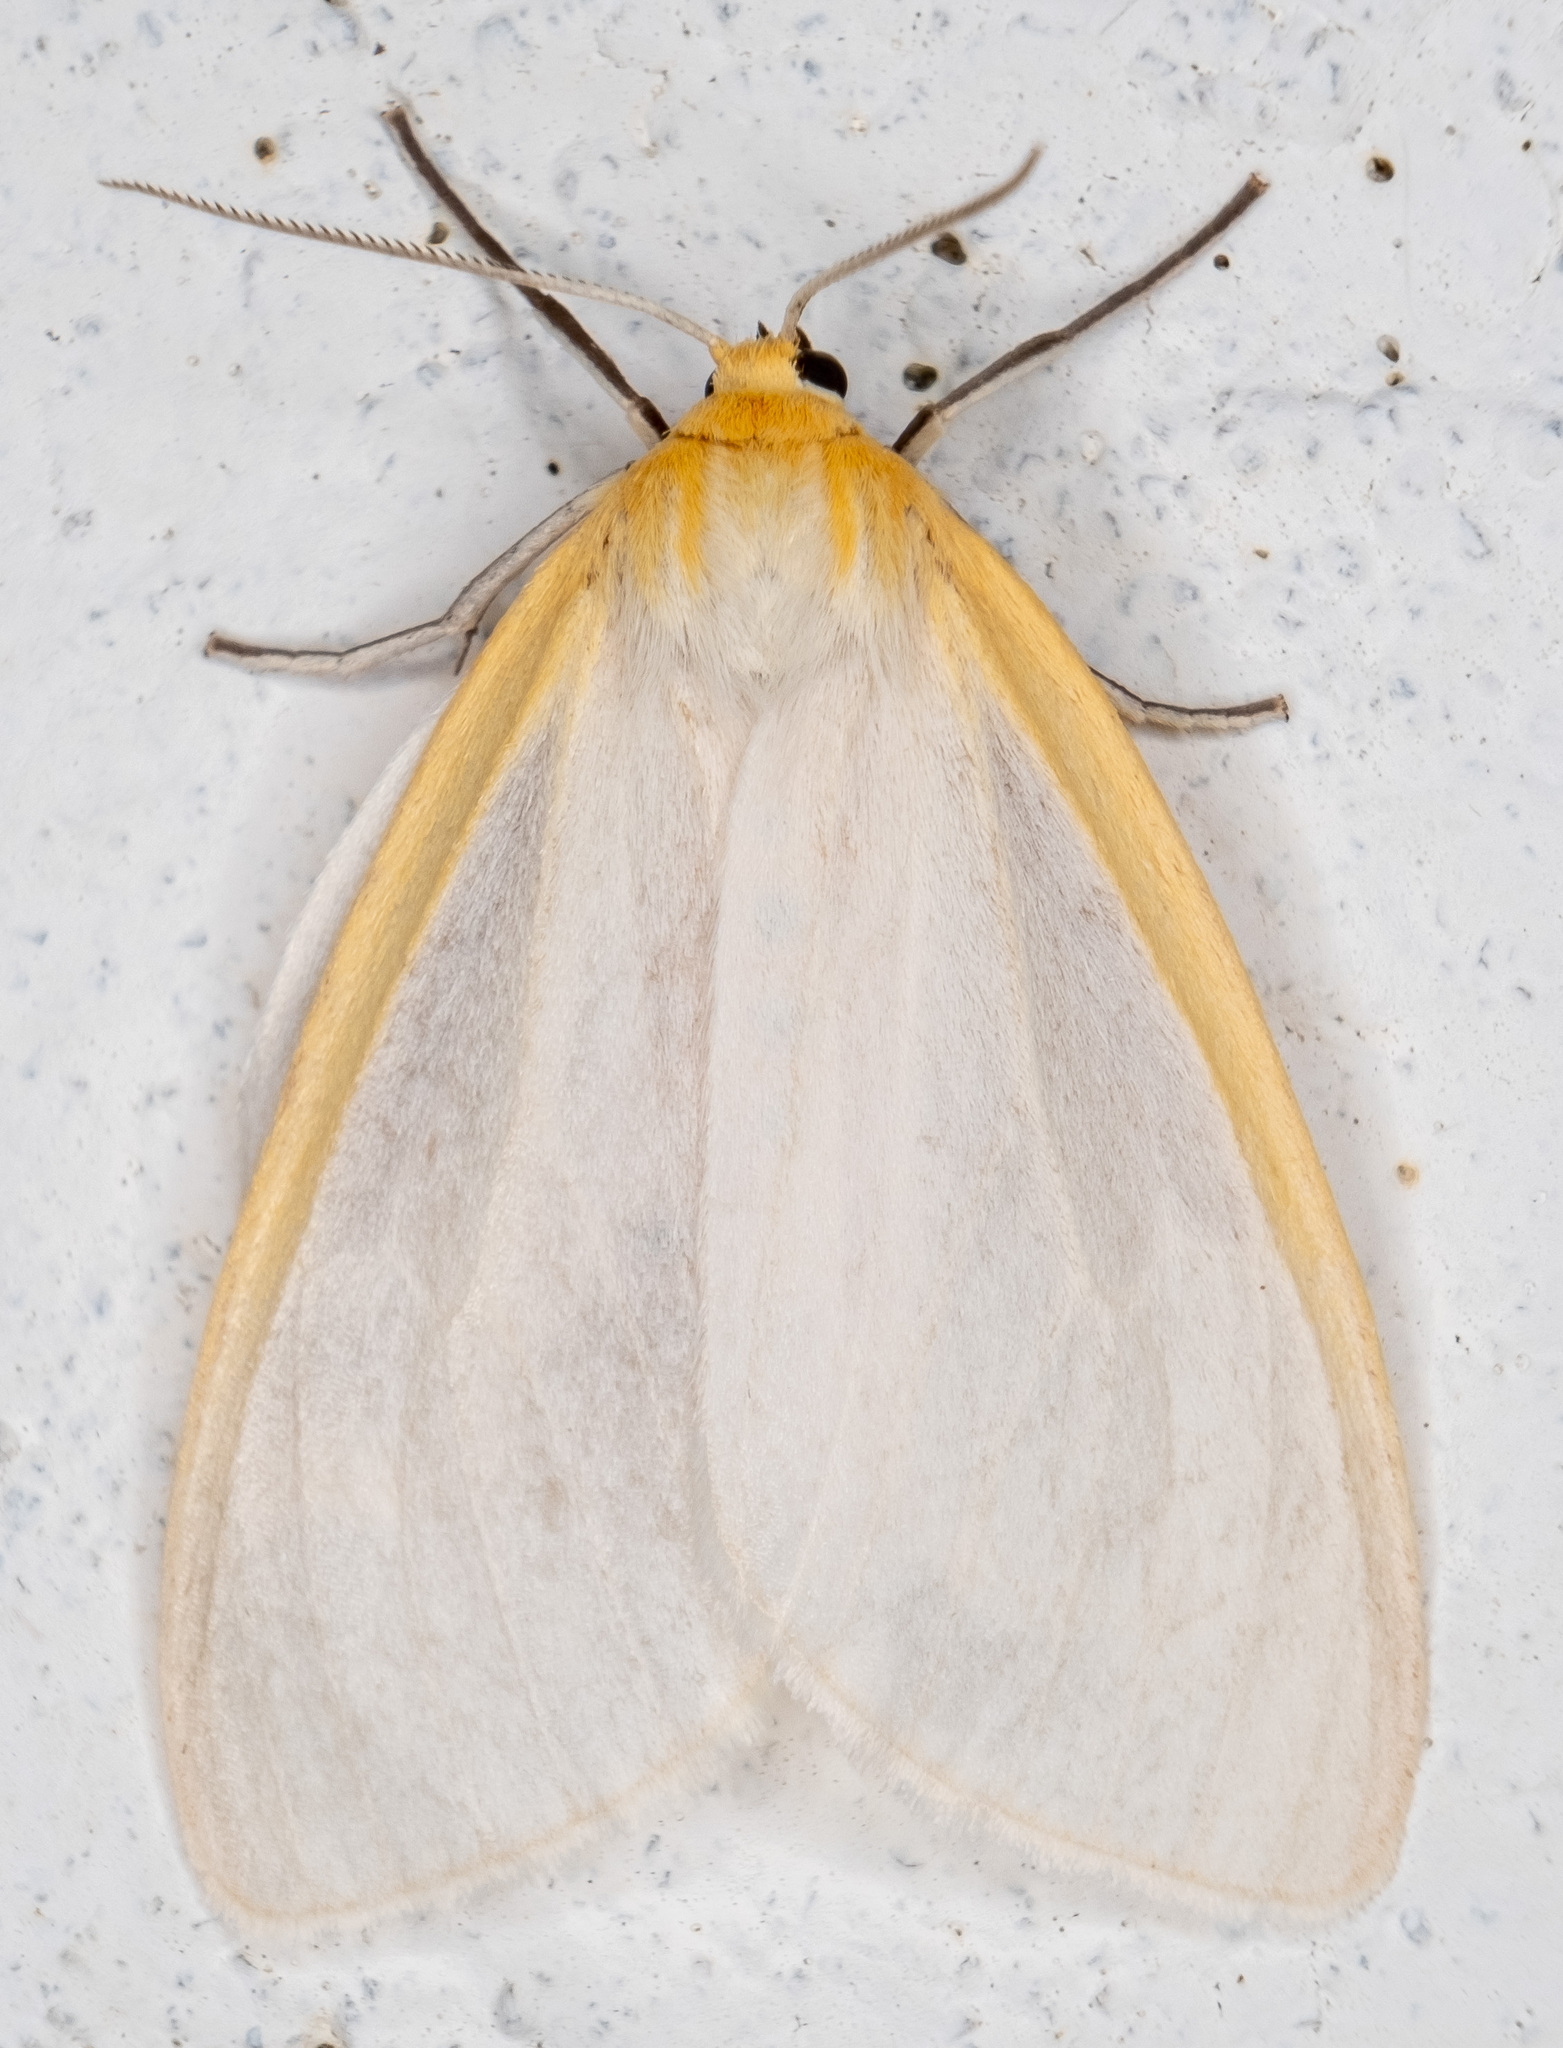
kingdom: Animalia
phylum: Arthropoda
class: Insecta
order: Lepidoptera
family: Erebidae
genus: Cycnia
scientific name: Cycnia tenera
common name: Delicate cycnia moth
